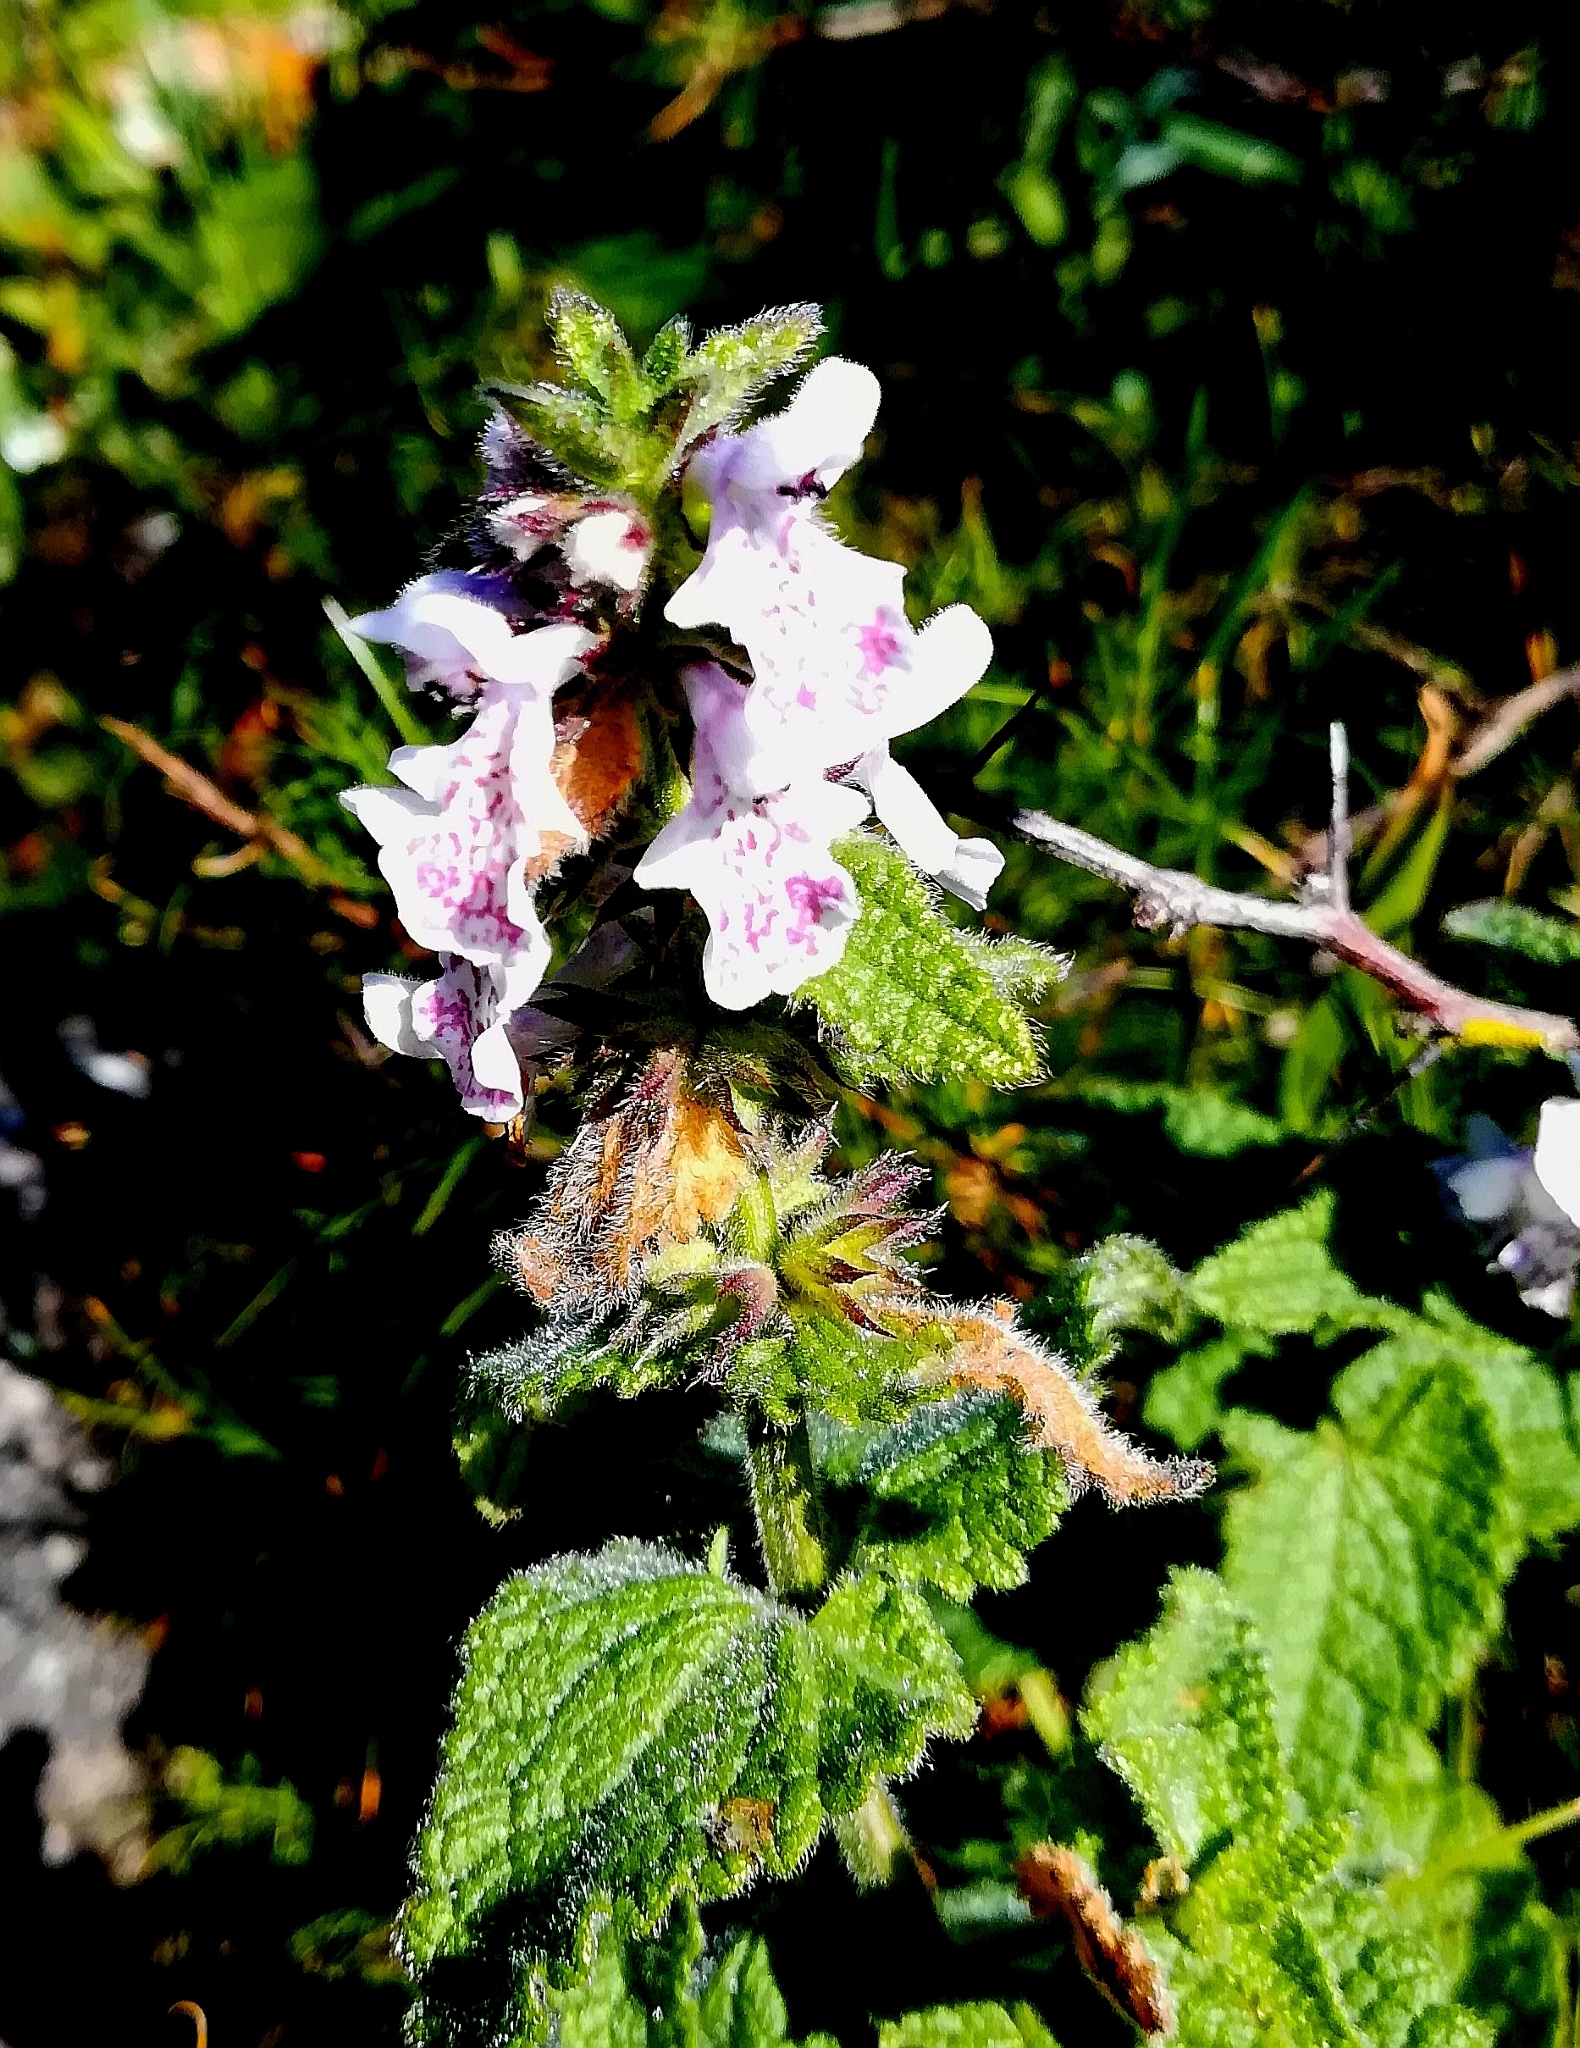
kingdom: Plantae
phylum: Tracheophyta
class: Magnoliopsida
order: Lamiales
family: Lamiaceae
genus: Stachys
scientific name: Stachys bolusii
